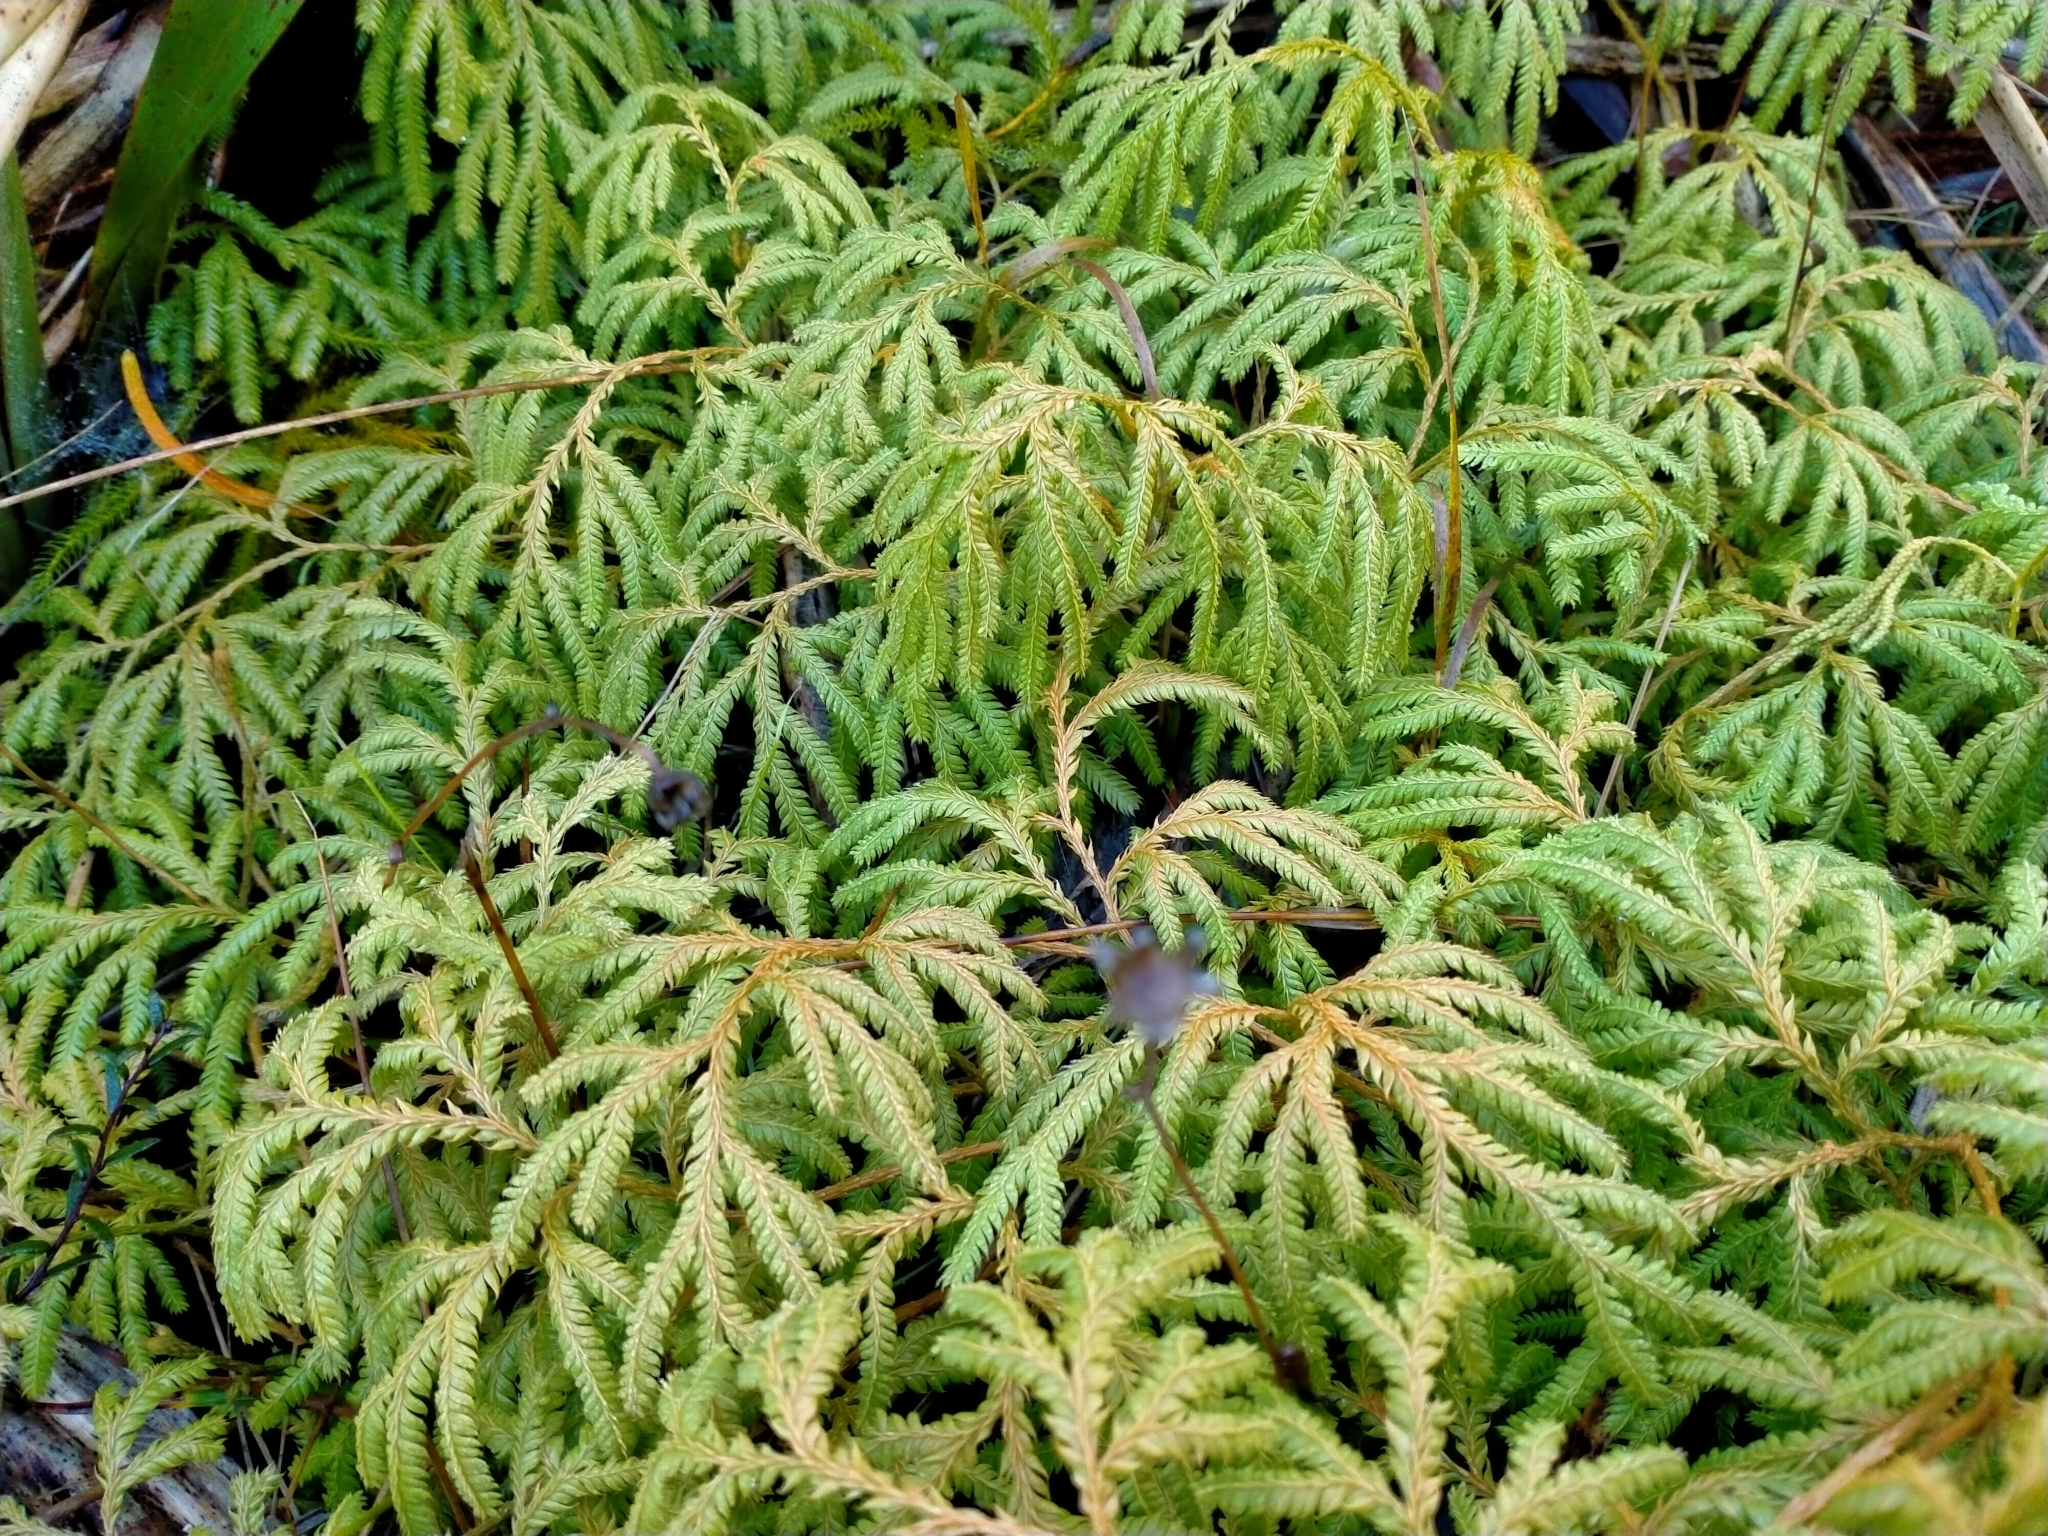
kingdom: Plantae
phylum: Tracheophyta
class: Lycopodiopsida
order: Lycopodiales
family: Lycopodiaceae
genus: Lycopodium
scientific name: Lycopodium volubile
